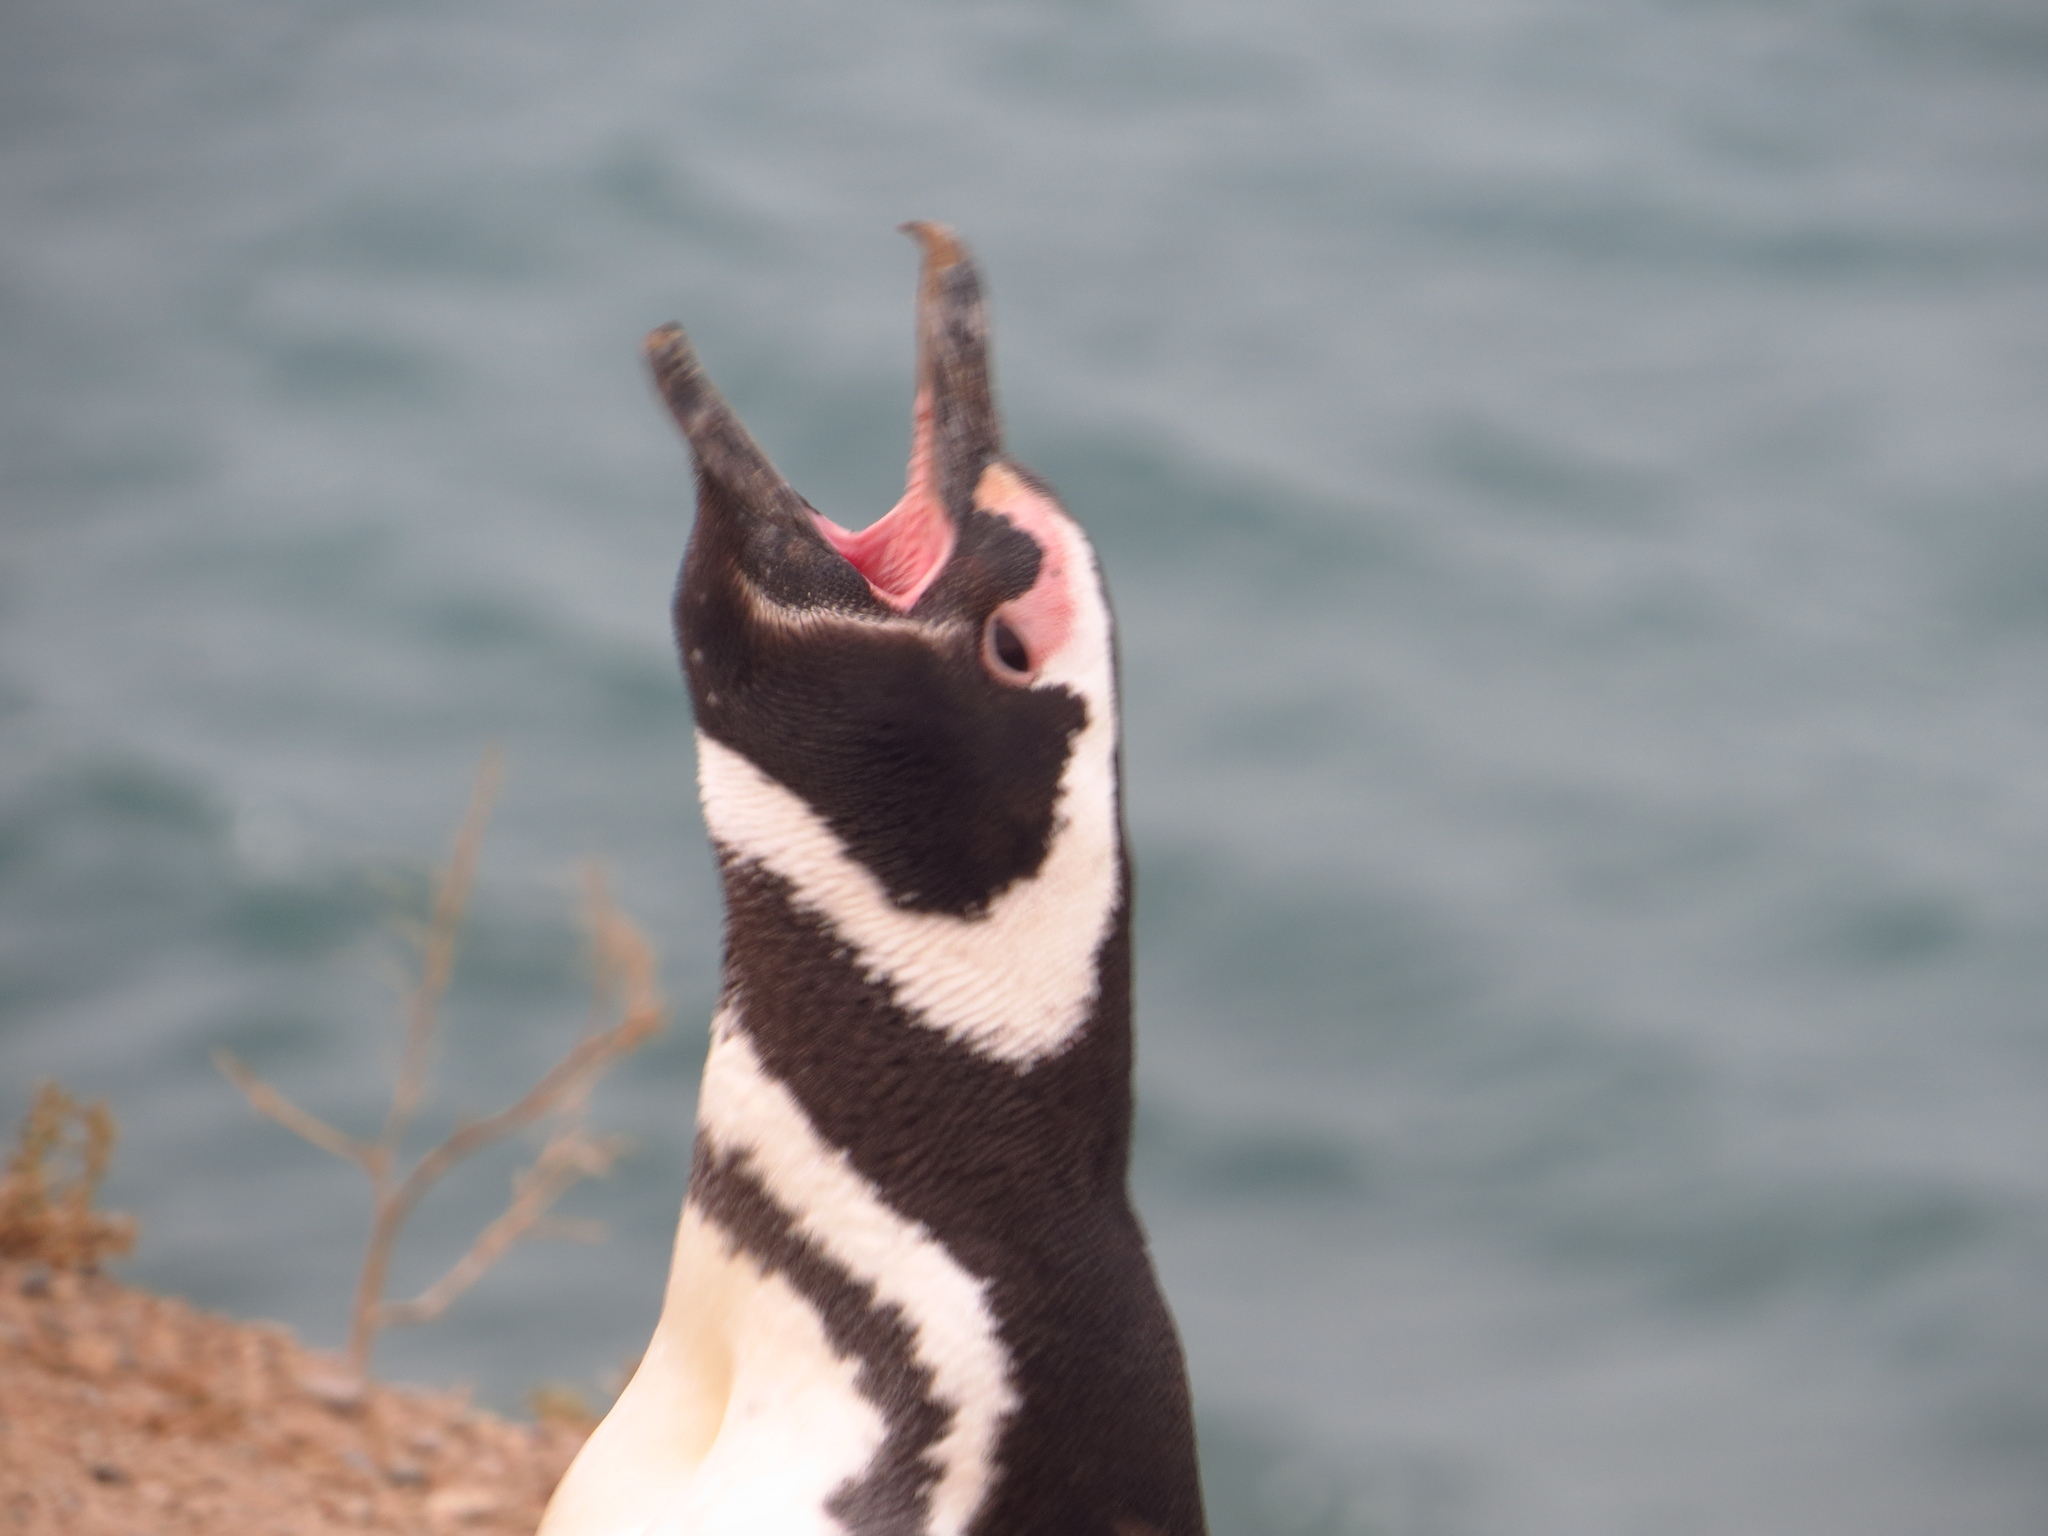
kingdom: Animalia
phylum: Chordata
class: Aves
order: Sphenisciformes
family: Spheniscidae
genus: Spheniscus
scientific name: Spheniscus magellanicus
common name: Magellanic penguin
